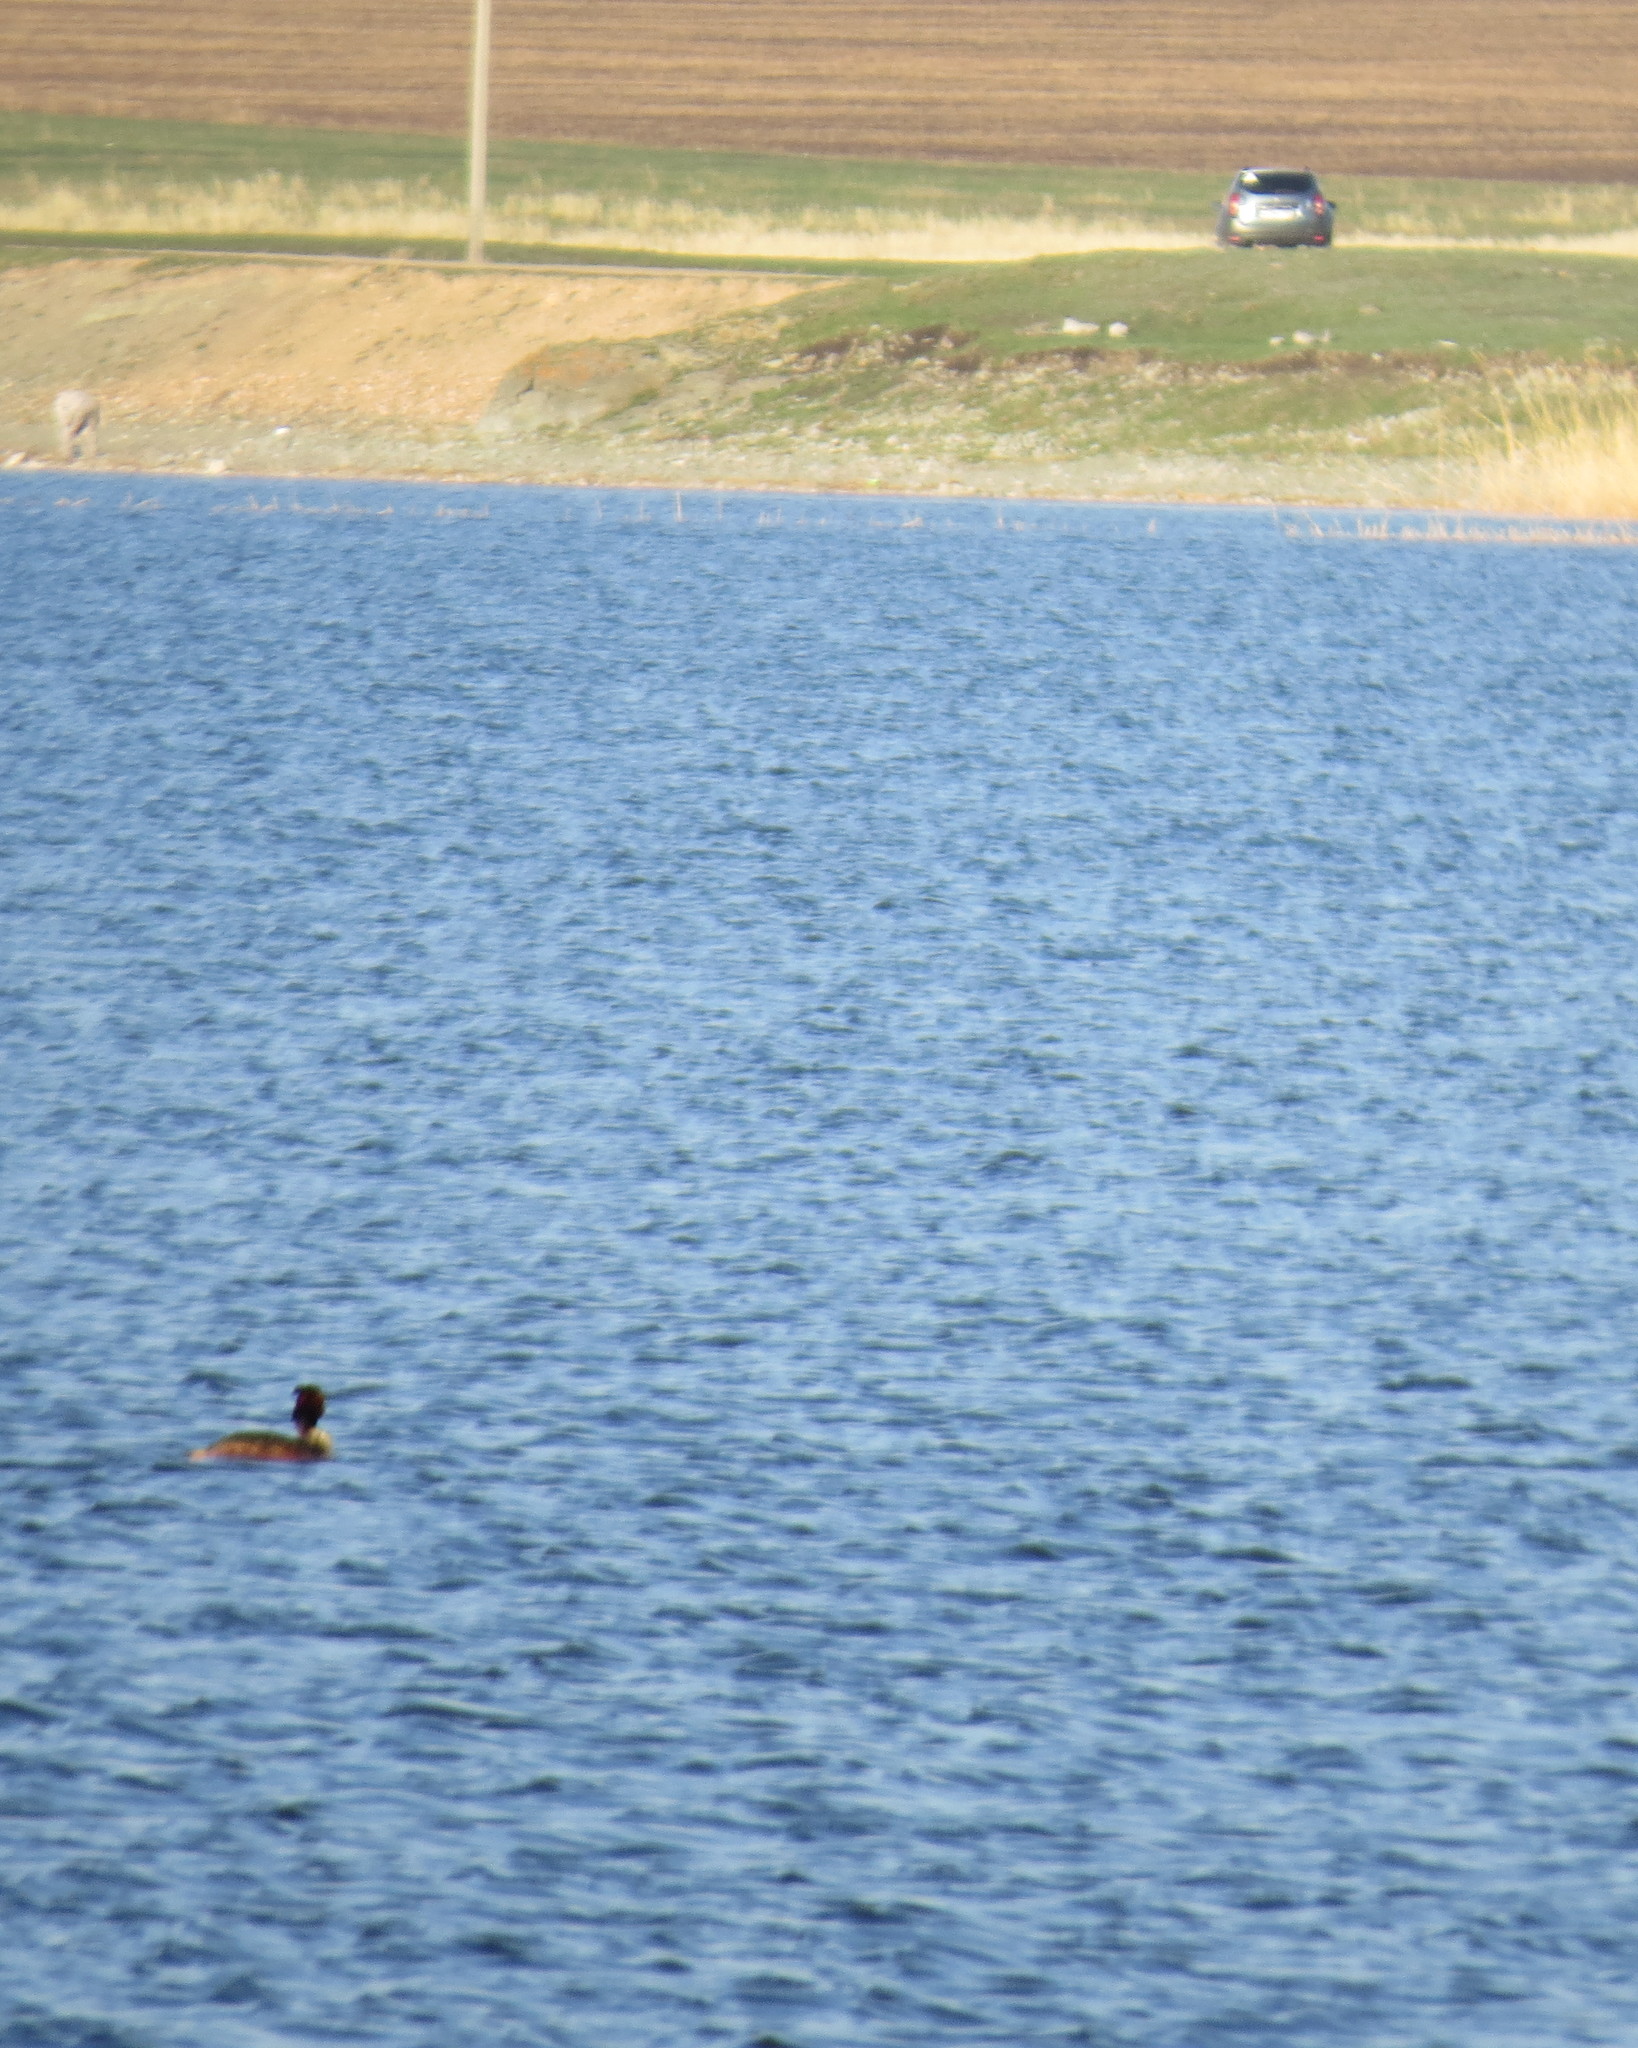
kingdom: Animalia
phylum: Chordata
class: Aves
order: Podicipediformes
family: Podicipedidae
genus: Podiceps
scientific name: Podiceps cristatus
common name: Great crested grebe
